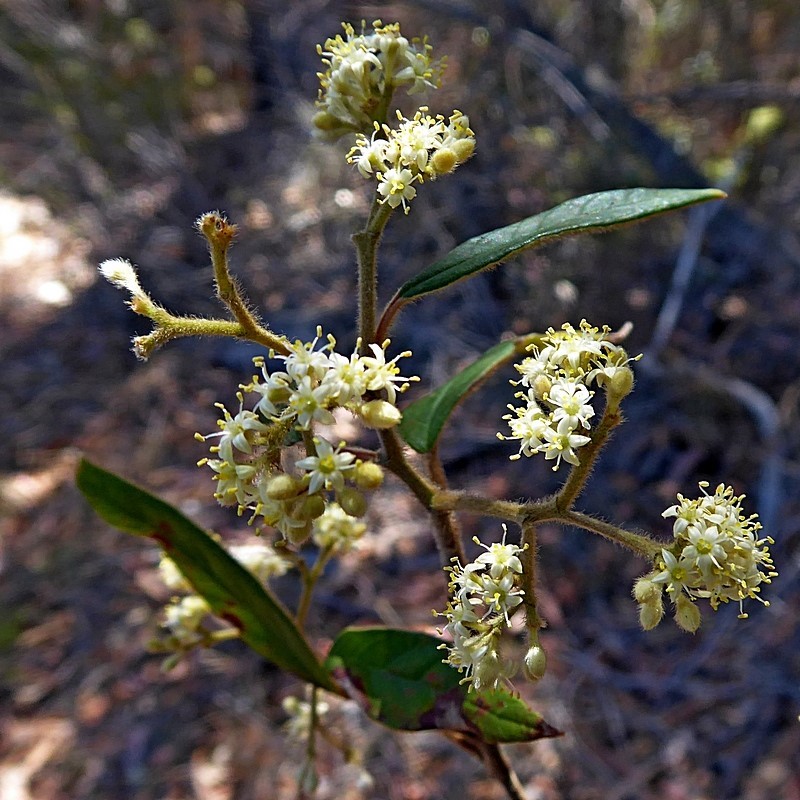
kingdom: Plantae
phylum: Tracheophyta
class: Magnoliopsida
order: Rosales
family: Rhamnaceae
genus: Pomaderris
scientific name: Pomaderris wendlandiana
